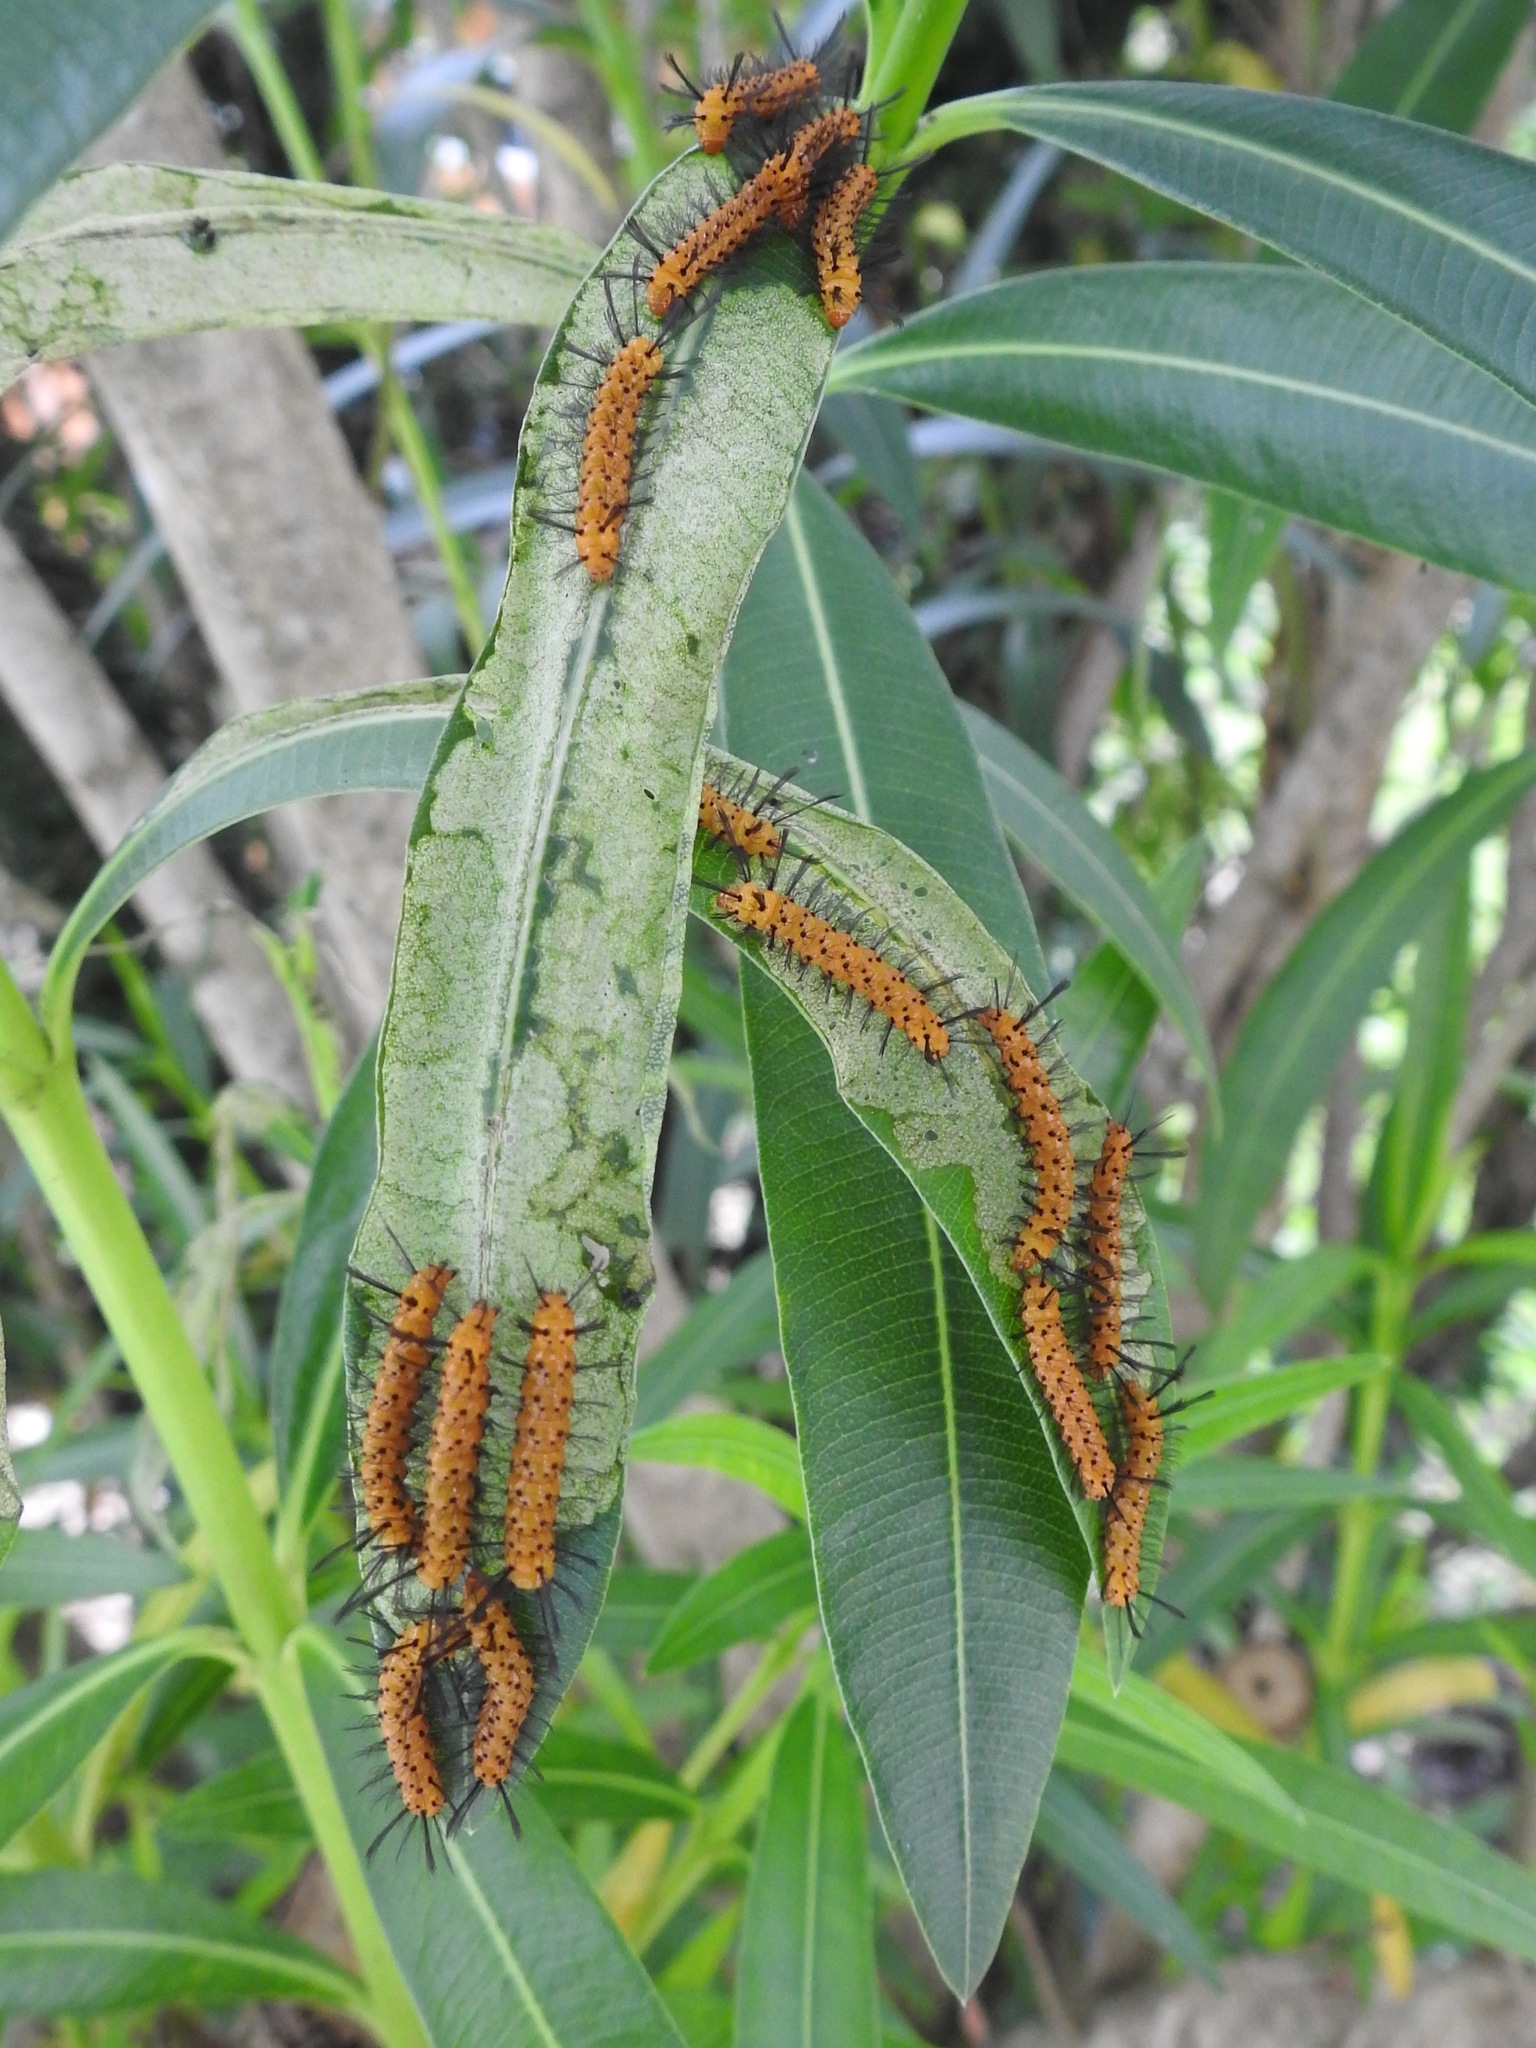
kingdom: Animalia
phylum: Arthropoda
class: Insecta
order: Lepidoptera
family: Erebidae
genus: Syntomeida
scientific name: Syntomeida epilais
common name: Polka-dot wasp moth
